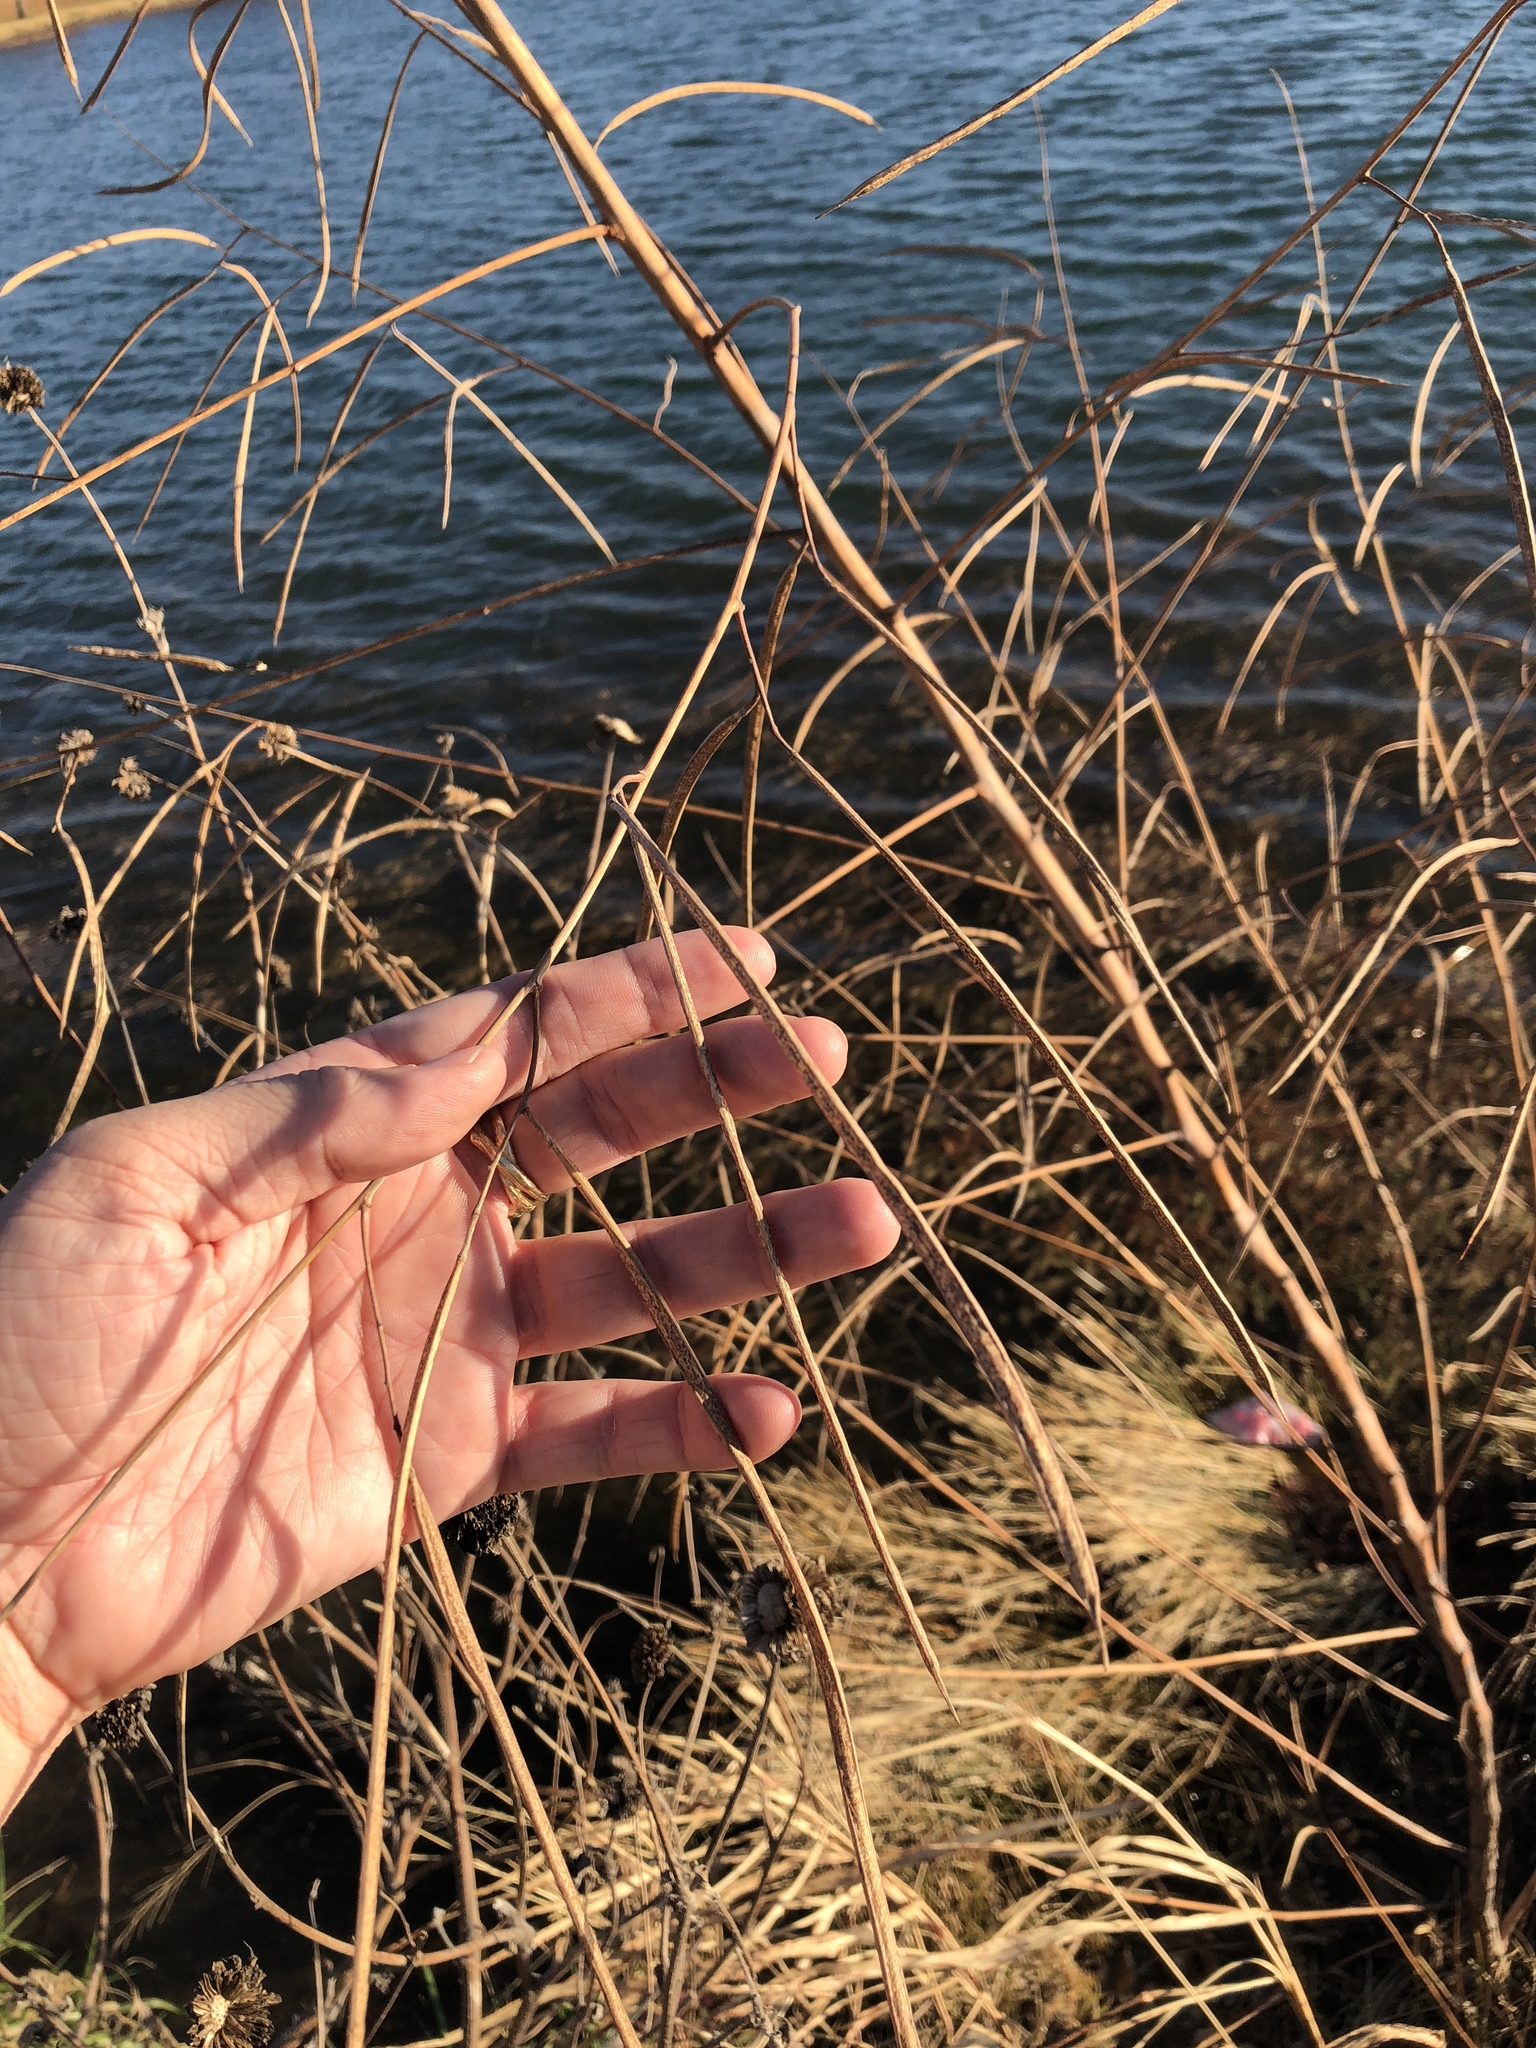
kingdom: Plantae
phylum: Tracheophyta
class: Magnoliopsida
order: Fabales
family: Fabaceae
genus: Sesbania
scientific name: Sesbania herbacea
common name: Bigpod sesbania
